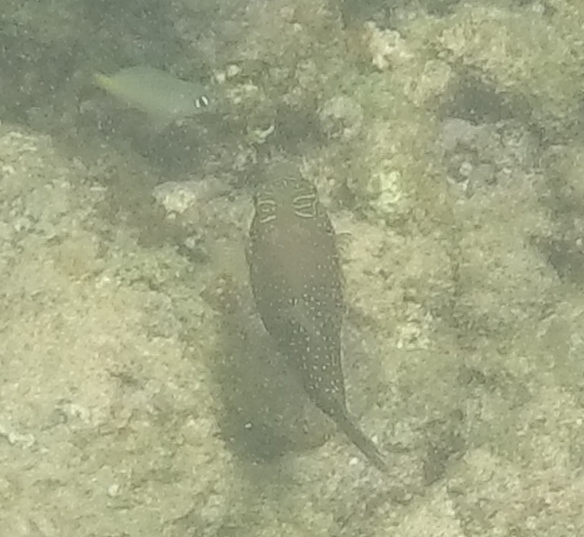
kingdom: Animalia
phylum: Chordata
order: Tetraodontiformes
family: Tetraodontidae
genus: Canthigaster
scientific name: Canthigaster amboinensis
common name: Ambon pufferfish
